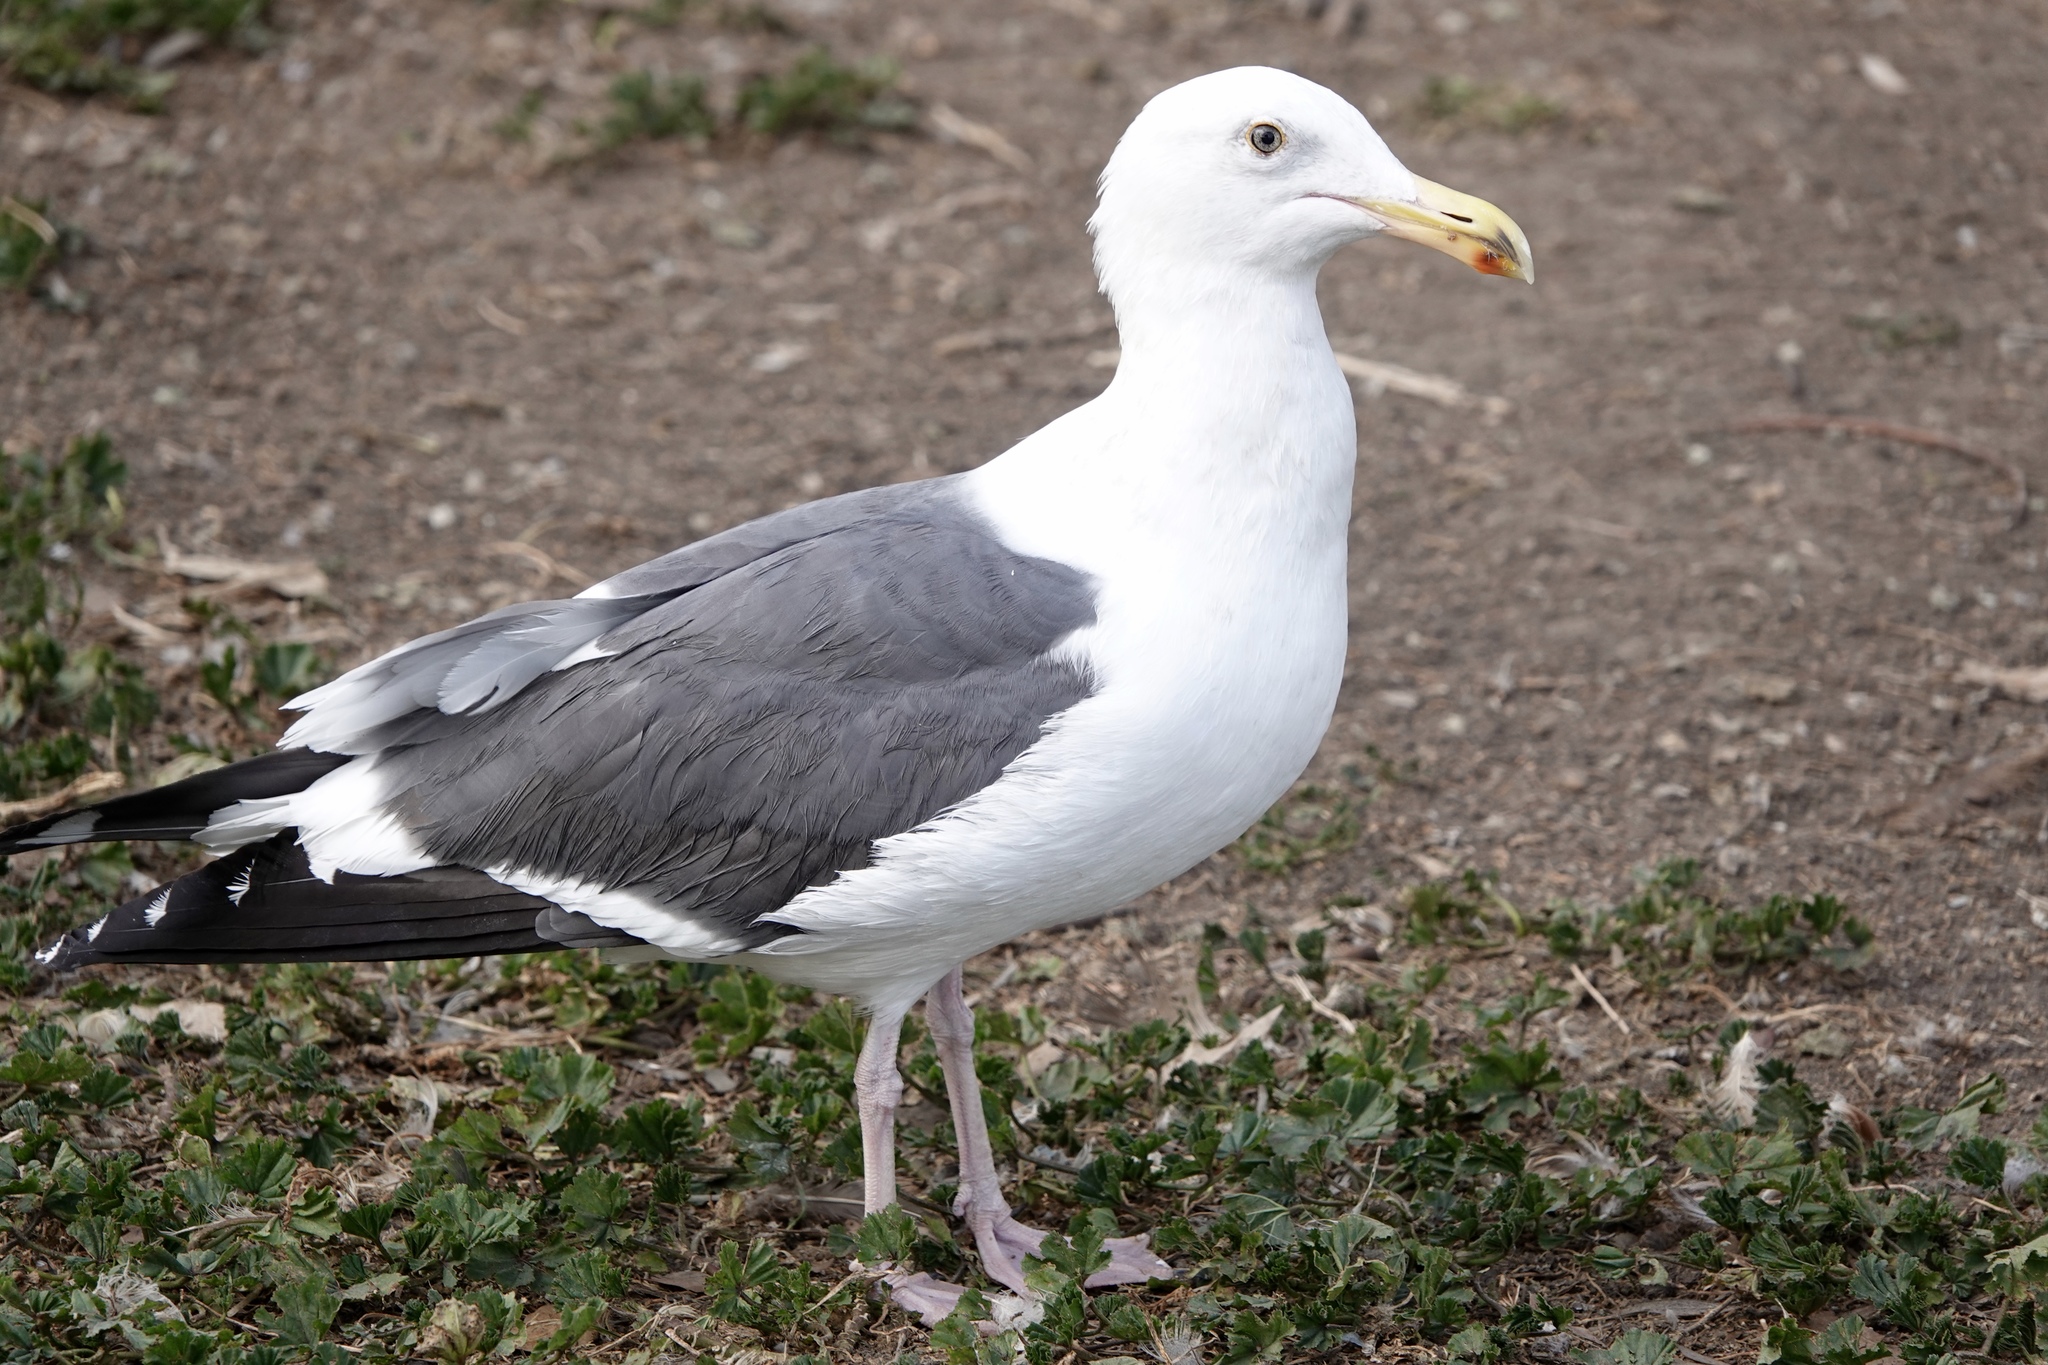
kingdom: Animalia
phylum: Chordata
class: Aves
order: Charadriiformes
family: Laridae
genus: Larus
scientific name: Larus occidentalis
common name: Western gull
